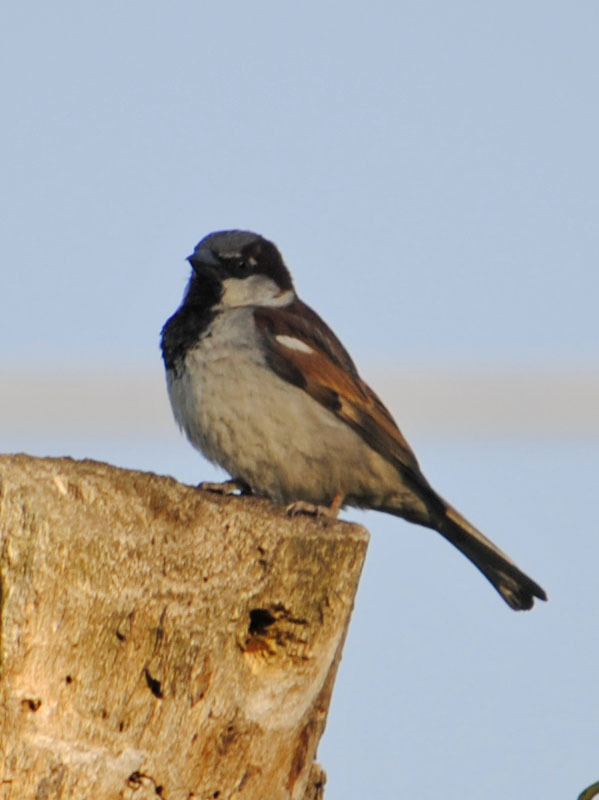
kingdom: Animalia
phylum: Chordata
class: Aves
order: Passeriformes
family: Passeridae
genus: Passer
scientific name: Passer domesticus
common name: House sparrow
